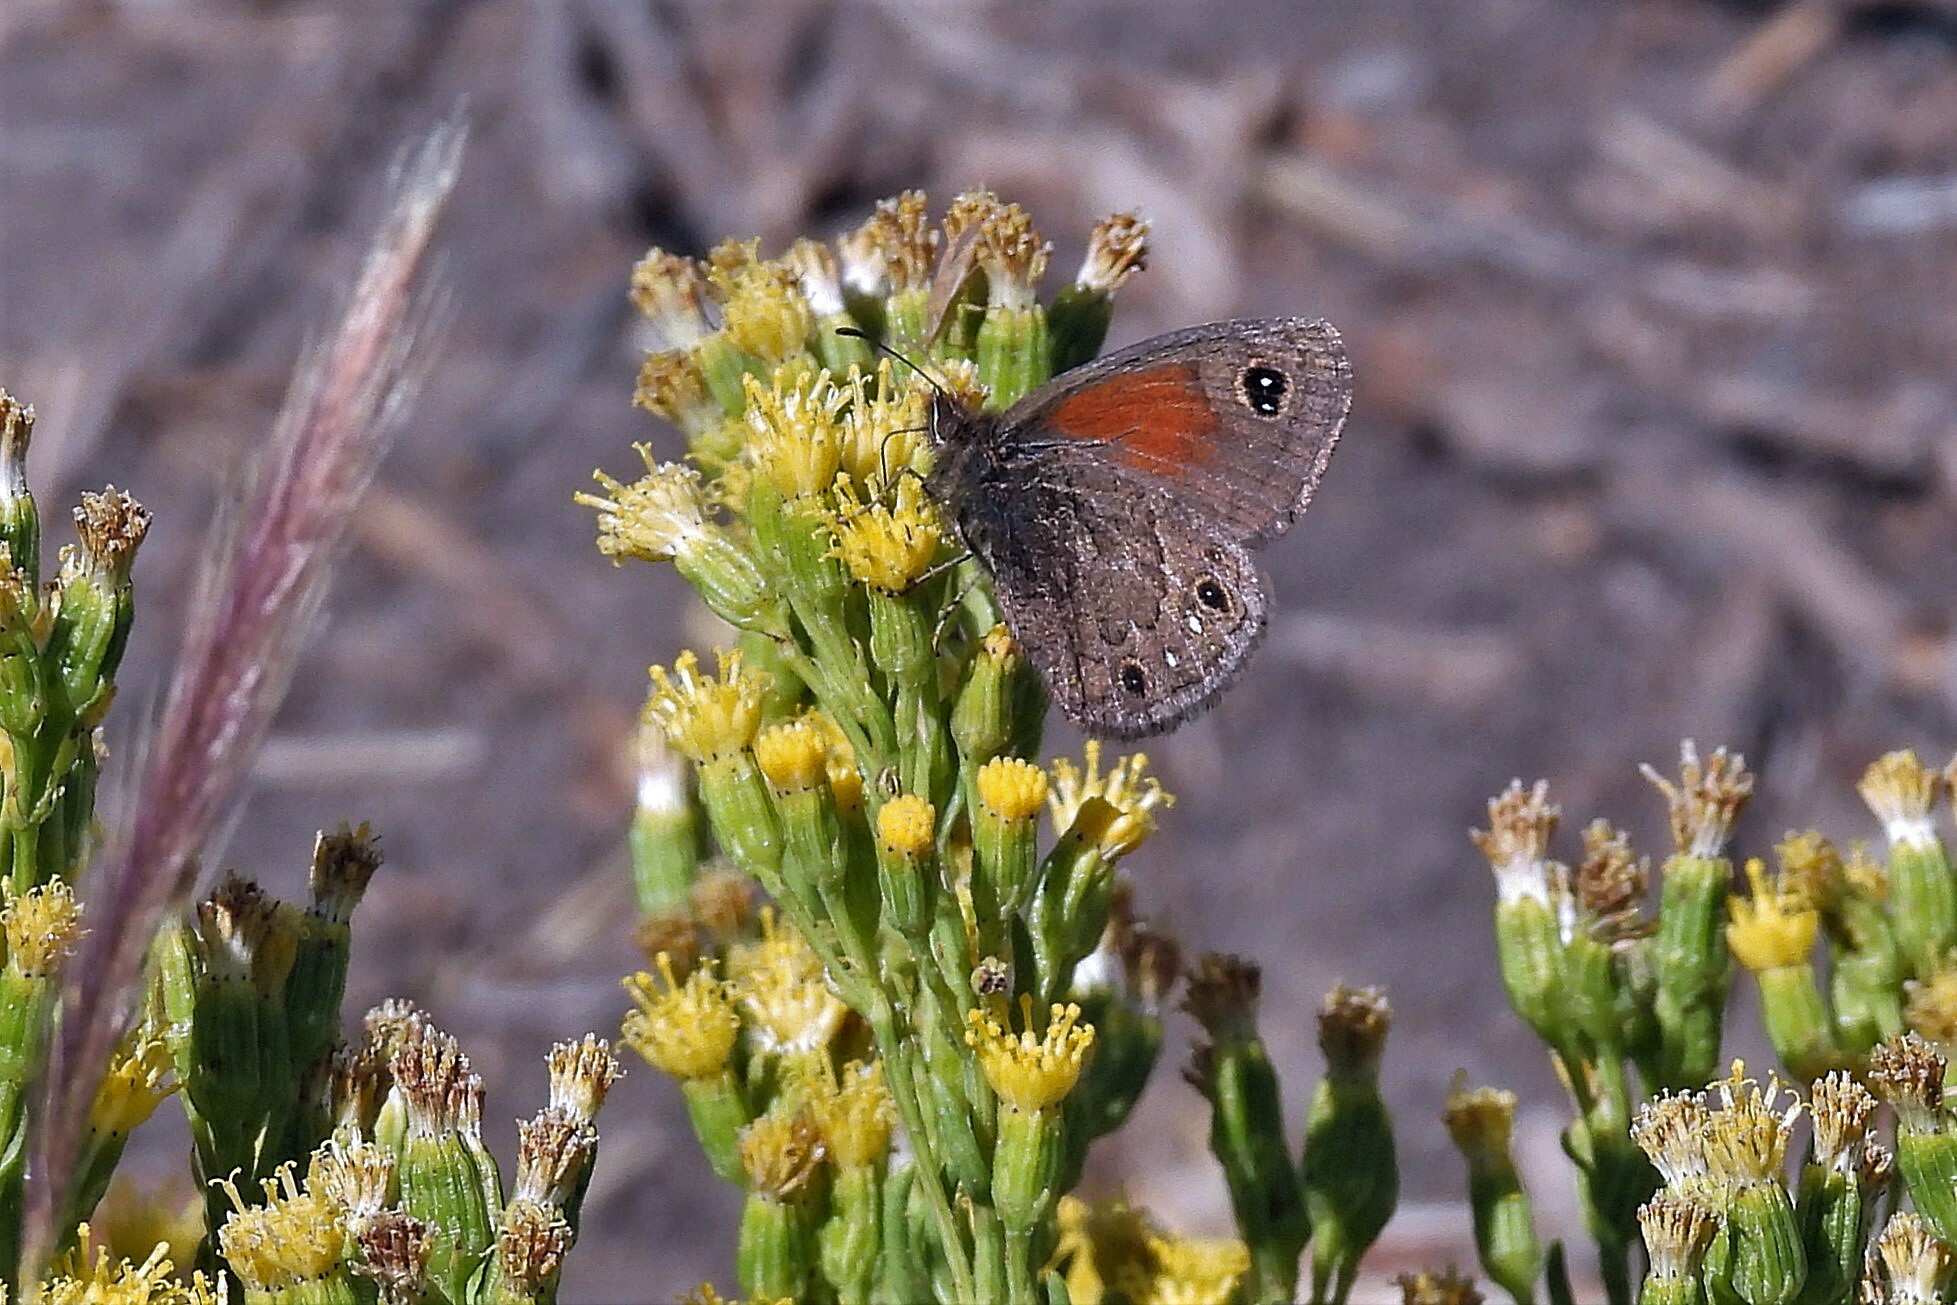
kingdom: Animalia
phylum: Arthropoda
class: Insecta
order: Lepidoptera
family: Nymphalidae
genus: Cosmosatyrus
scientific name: Cosmosatyrus leptoneuroides
